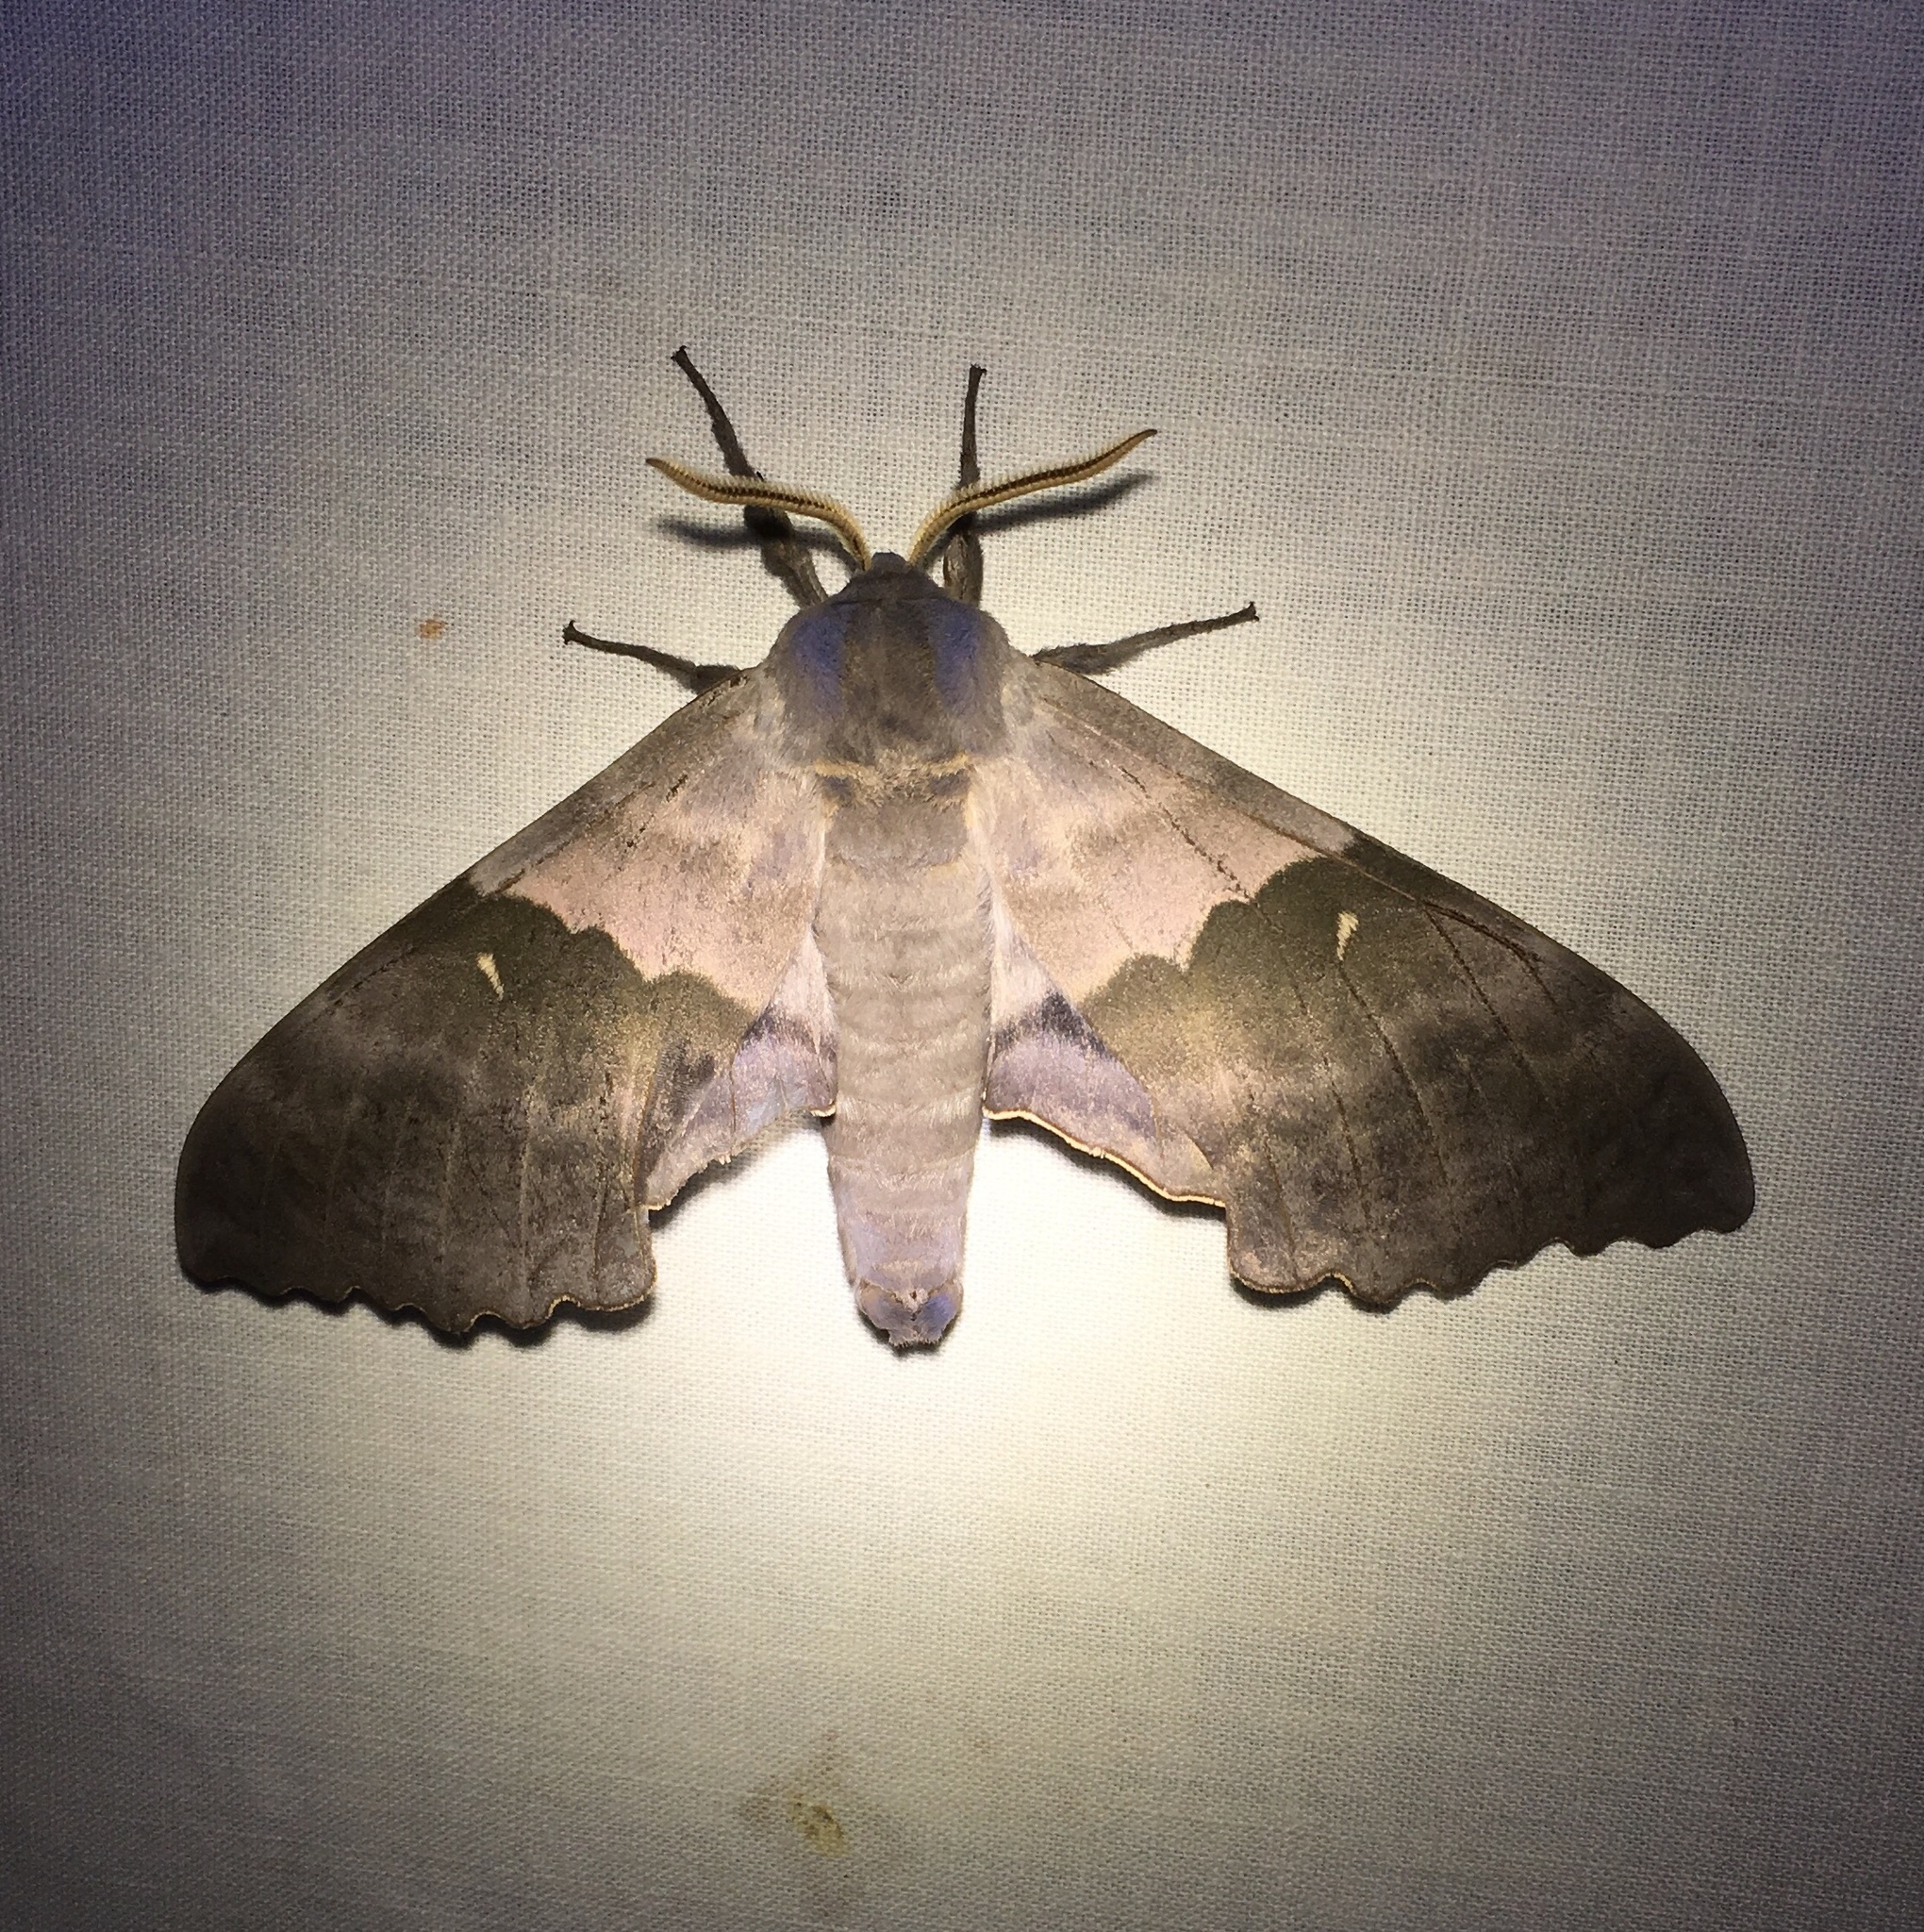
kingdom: Animalia
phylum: Arthropoda
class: Insecta
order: Lepidoptera
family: Sphingidae
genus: Pachysphinx
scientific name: Pachysphinx modesta
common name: Big poplar sphinx
